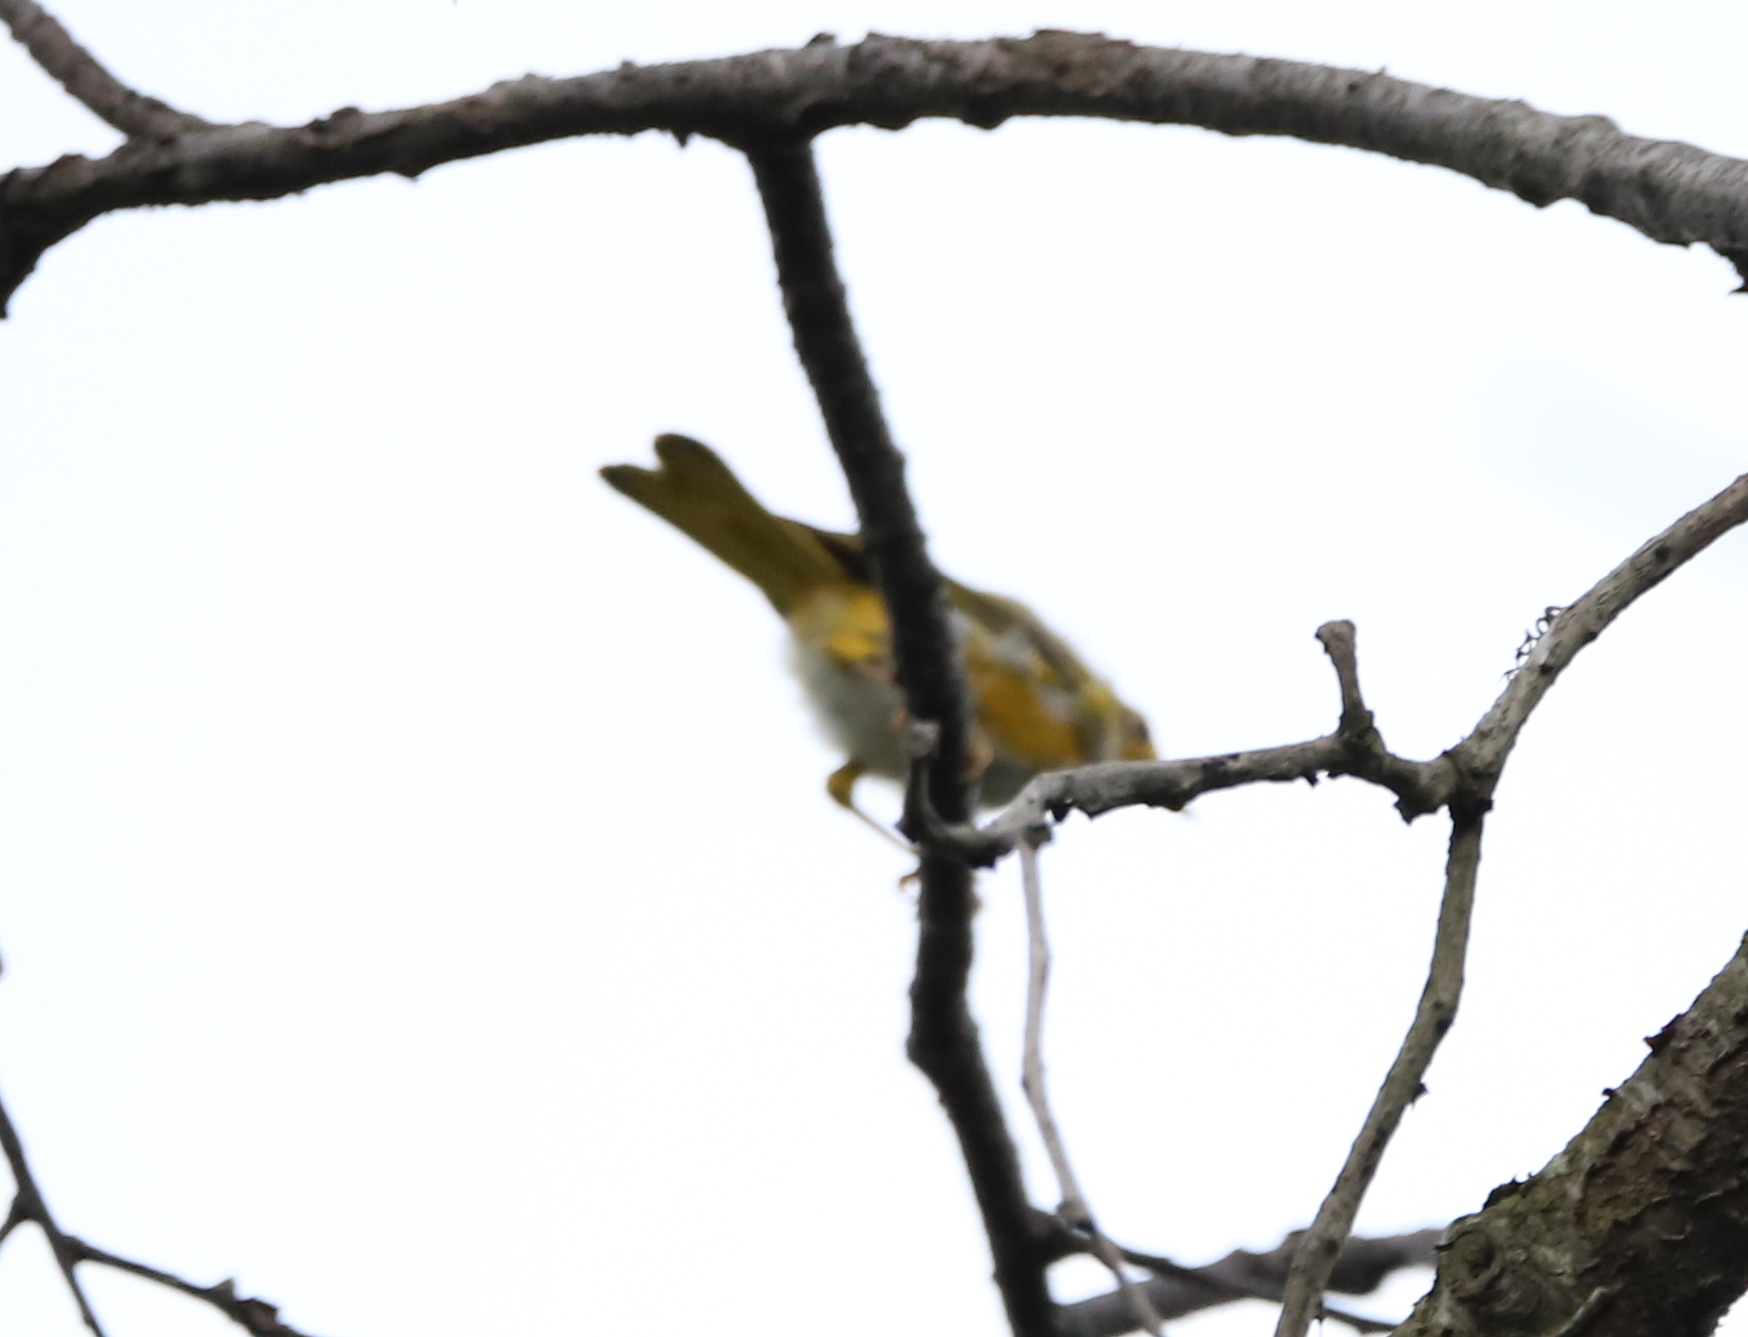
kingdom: Animalia
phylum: Chordata
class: Aves
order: Passeriformes
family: Parulidae
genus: Setophaga
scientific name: Setophaga petechia
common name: Yellow warbler
